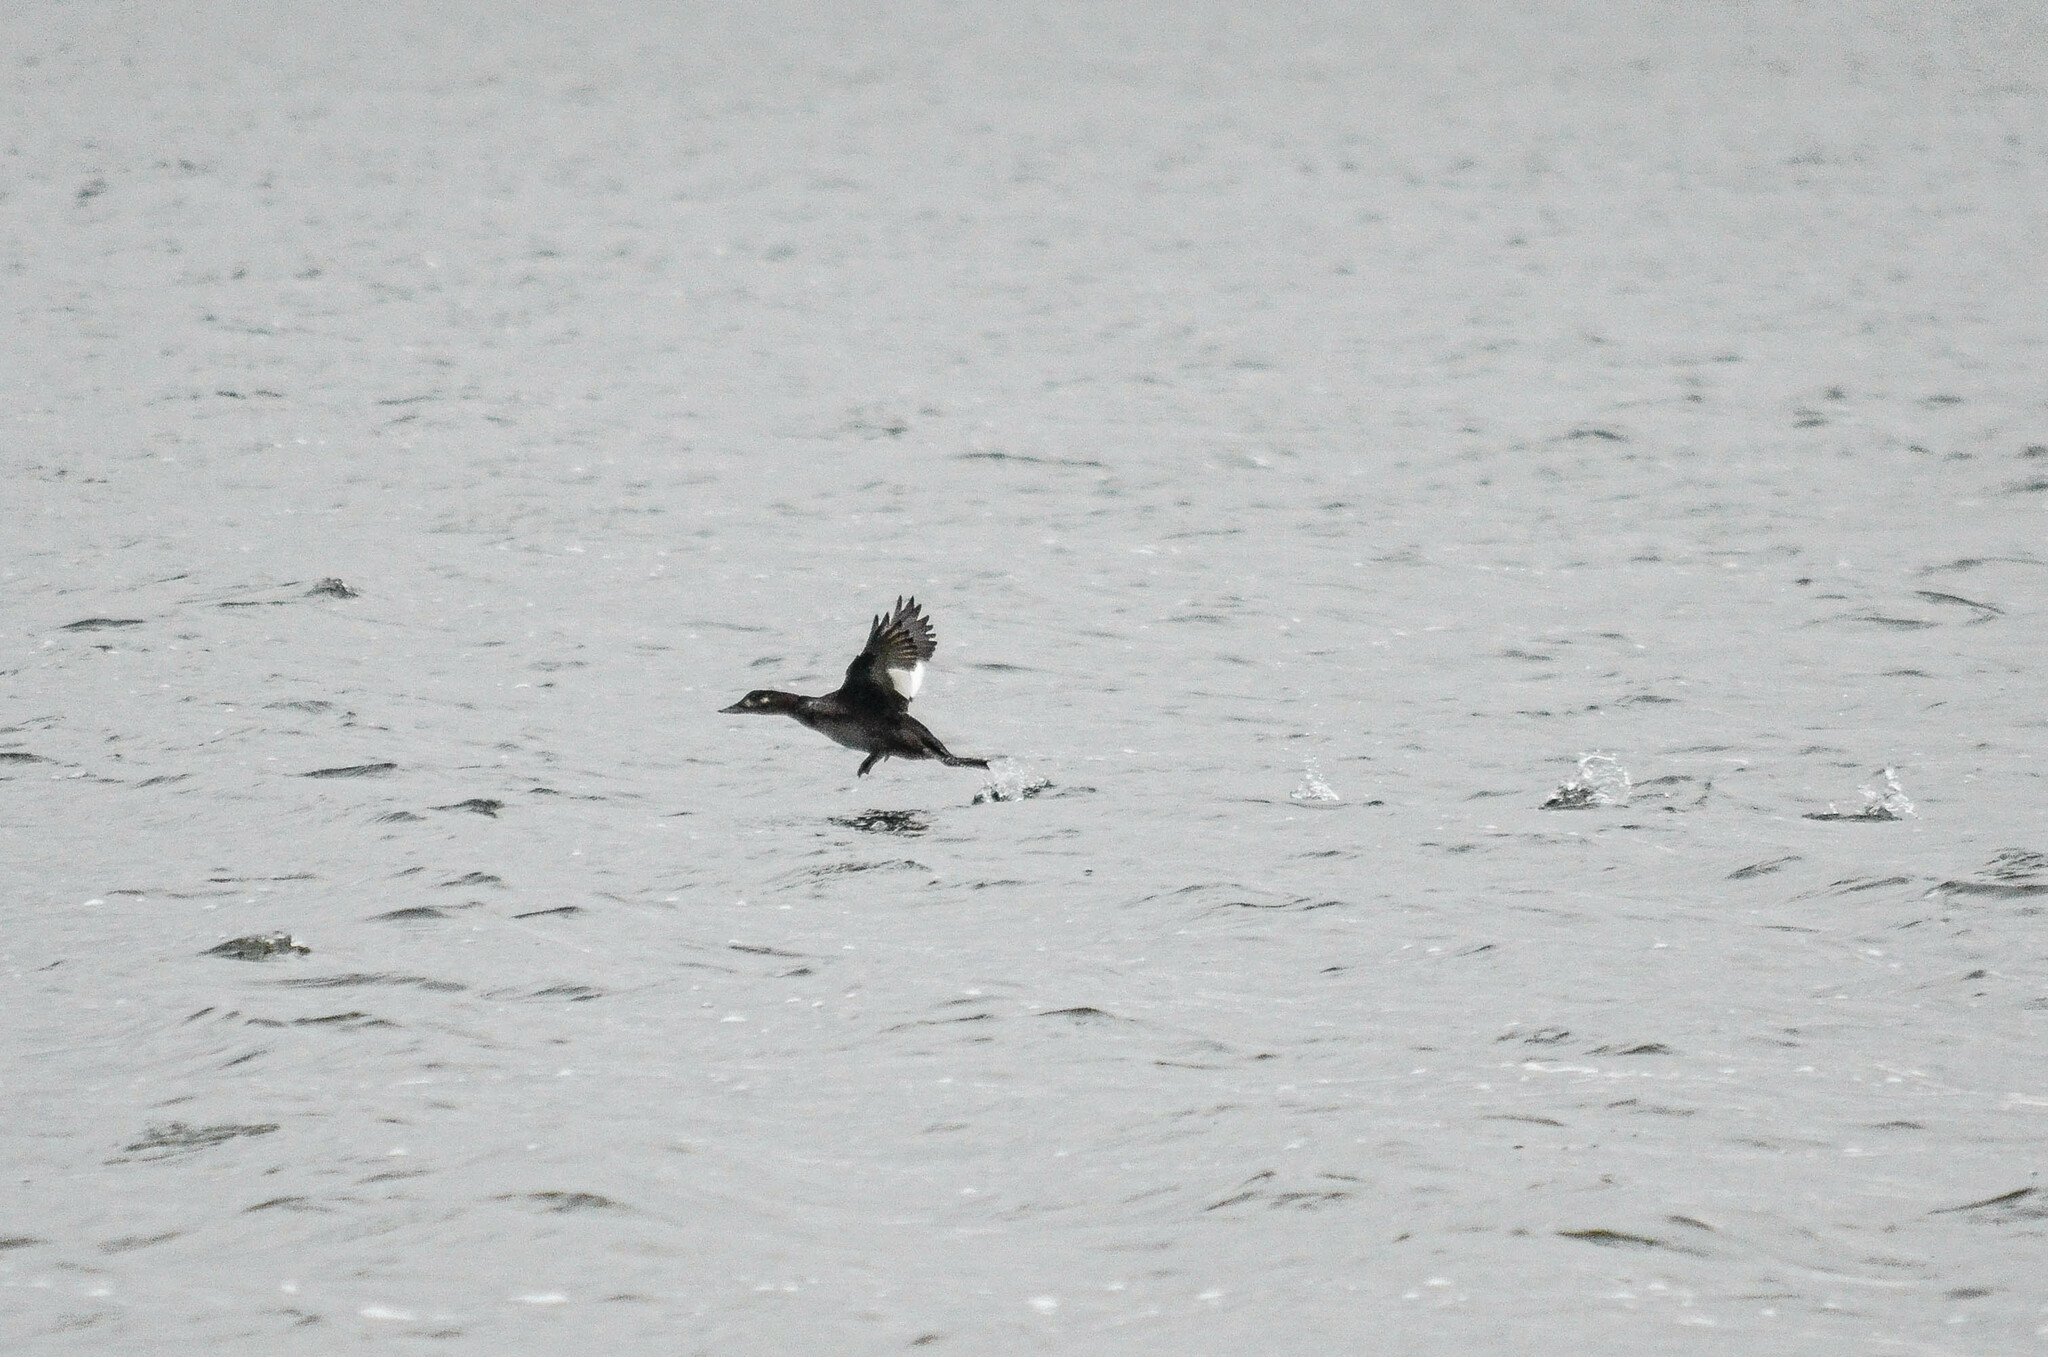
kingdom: Animalia
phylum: Chordata
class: Aves
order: Anseriformes
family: Anatidae
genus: Melanitta
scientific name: Melanitta fusca
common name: Velvet scoter
